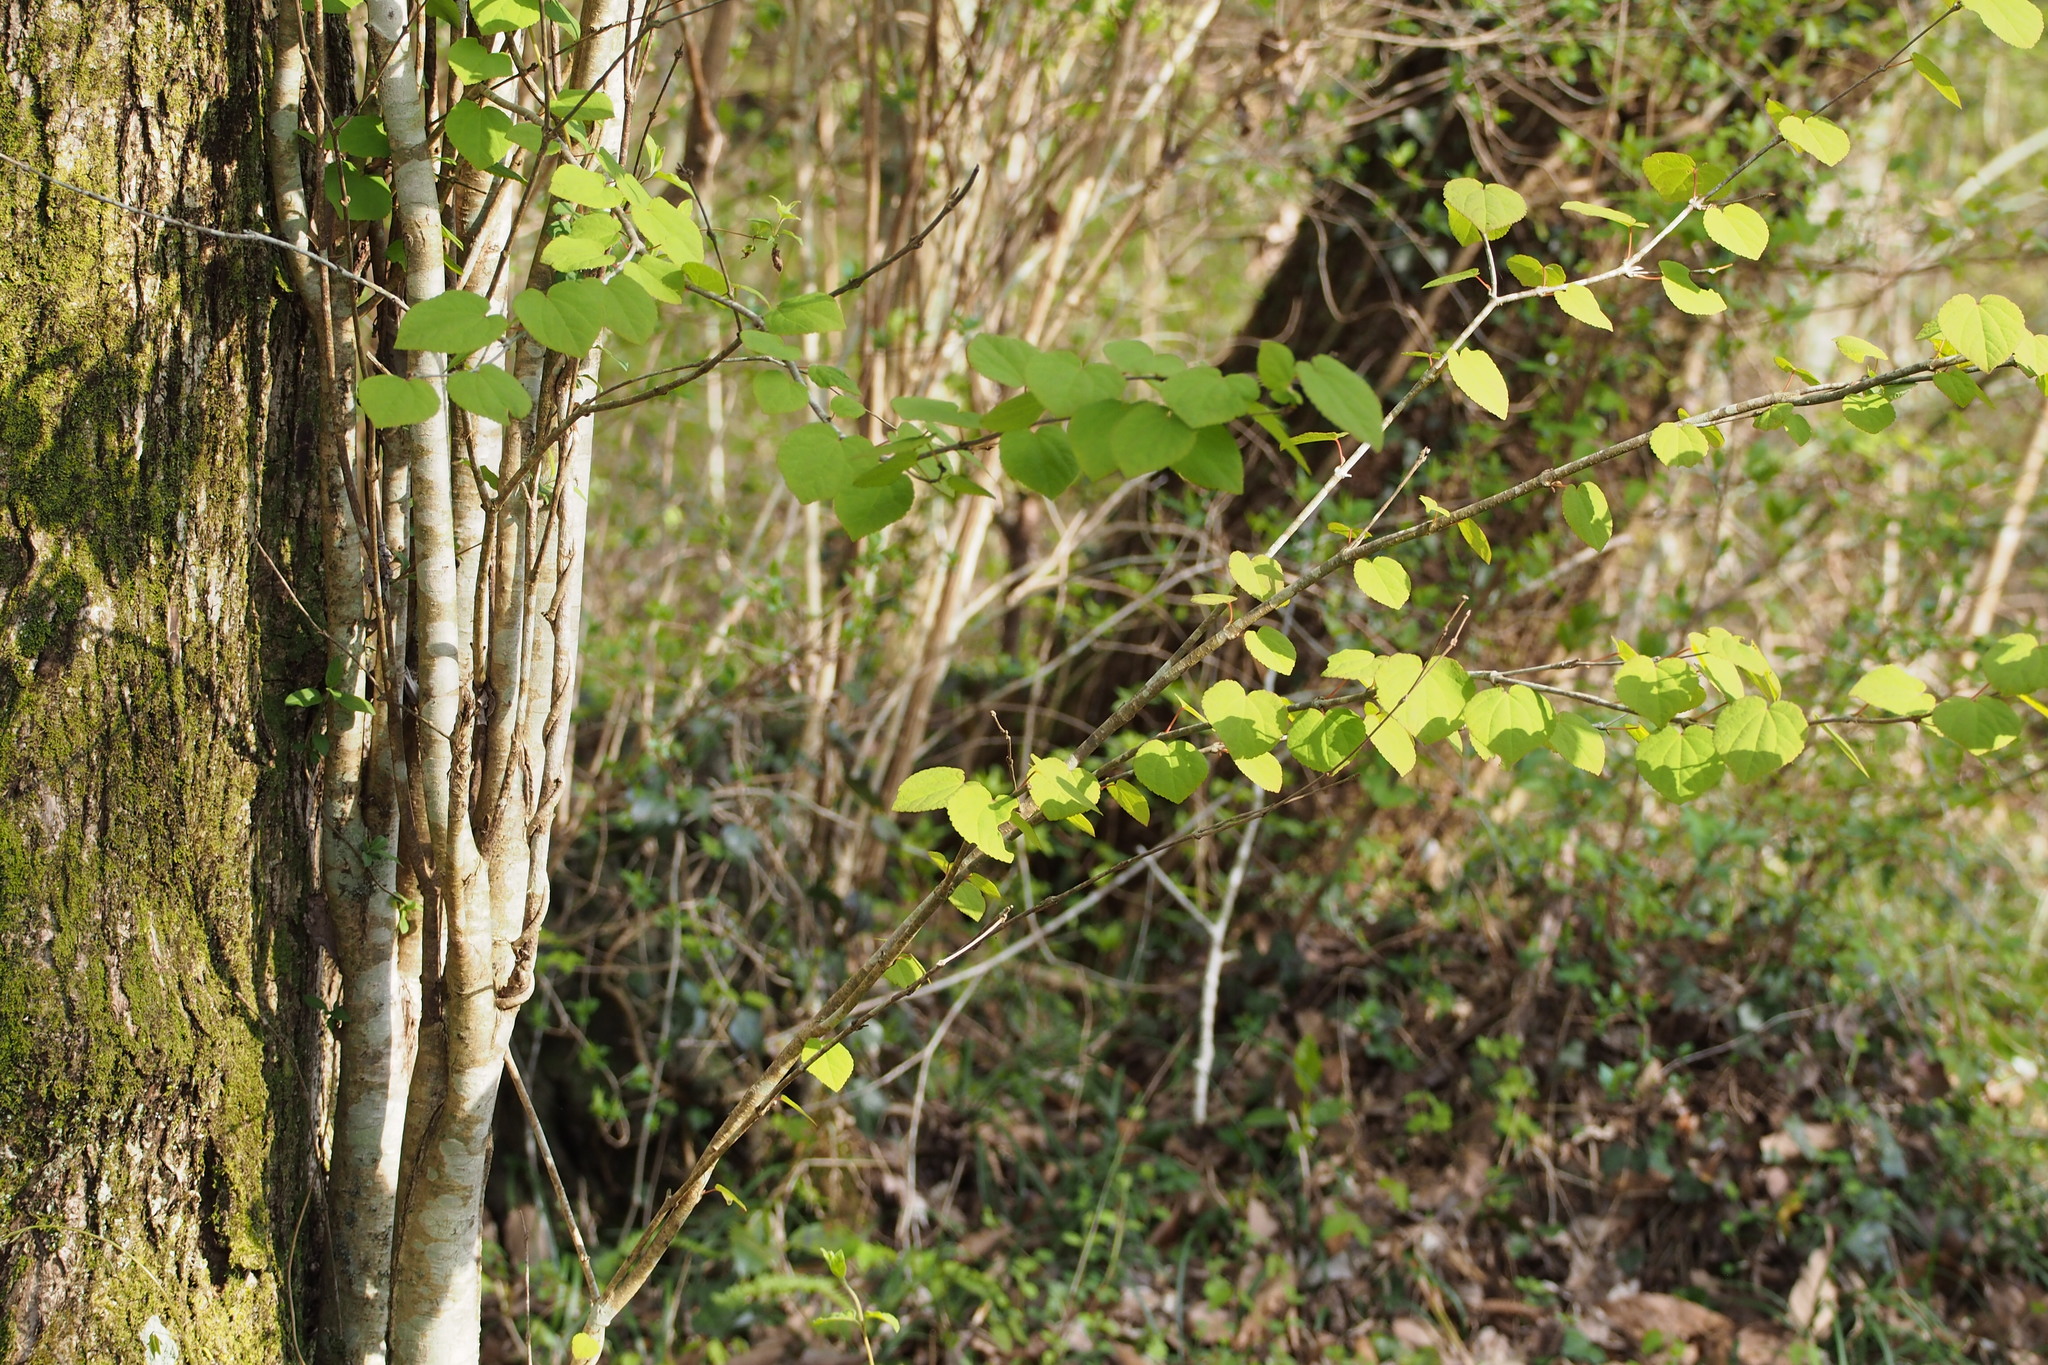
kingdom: Plantae
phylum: Tracheophyta
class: Magnoliopsida
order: Saxifragales
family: Cercidiphyllaceae
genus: Cercidiphyllum
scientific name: Cercidiphyllum japonicum
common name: Katsura tree
